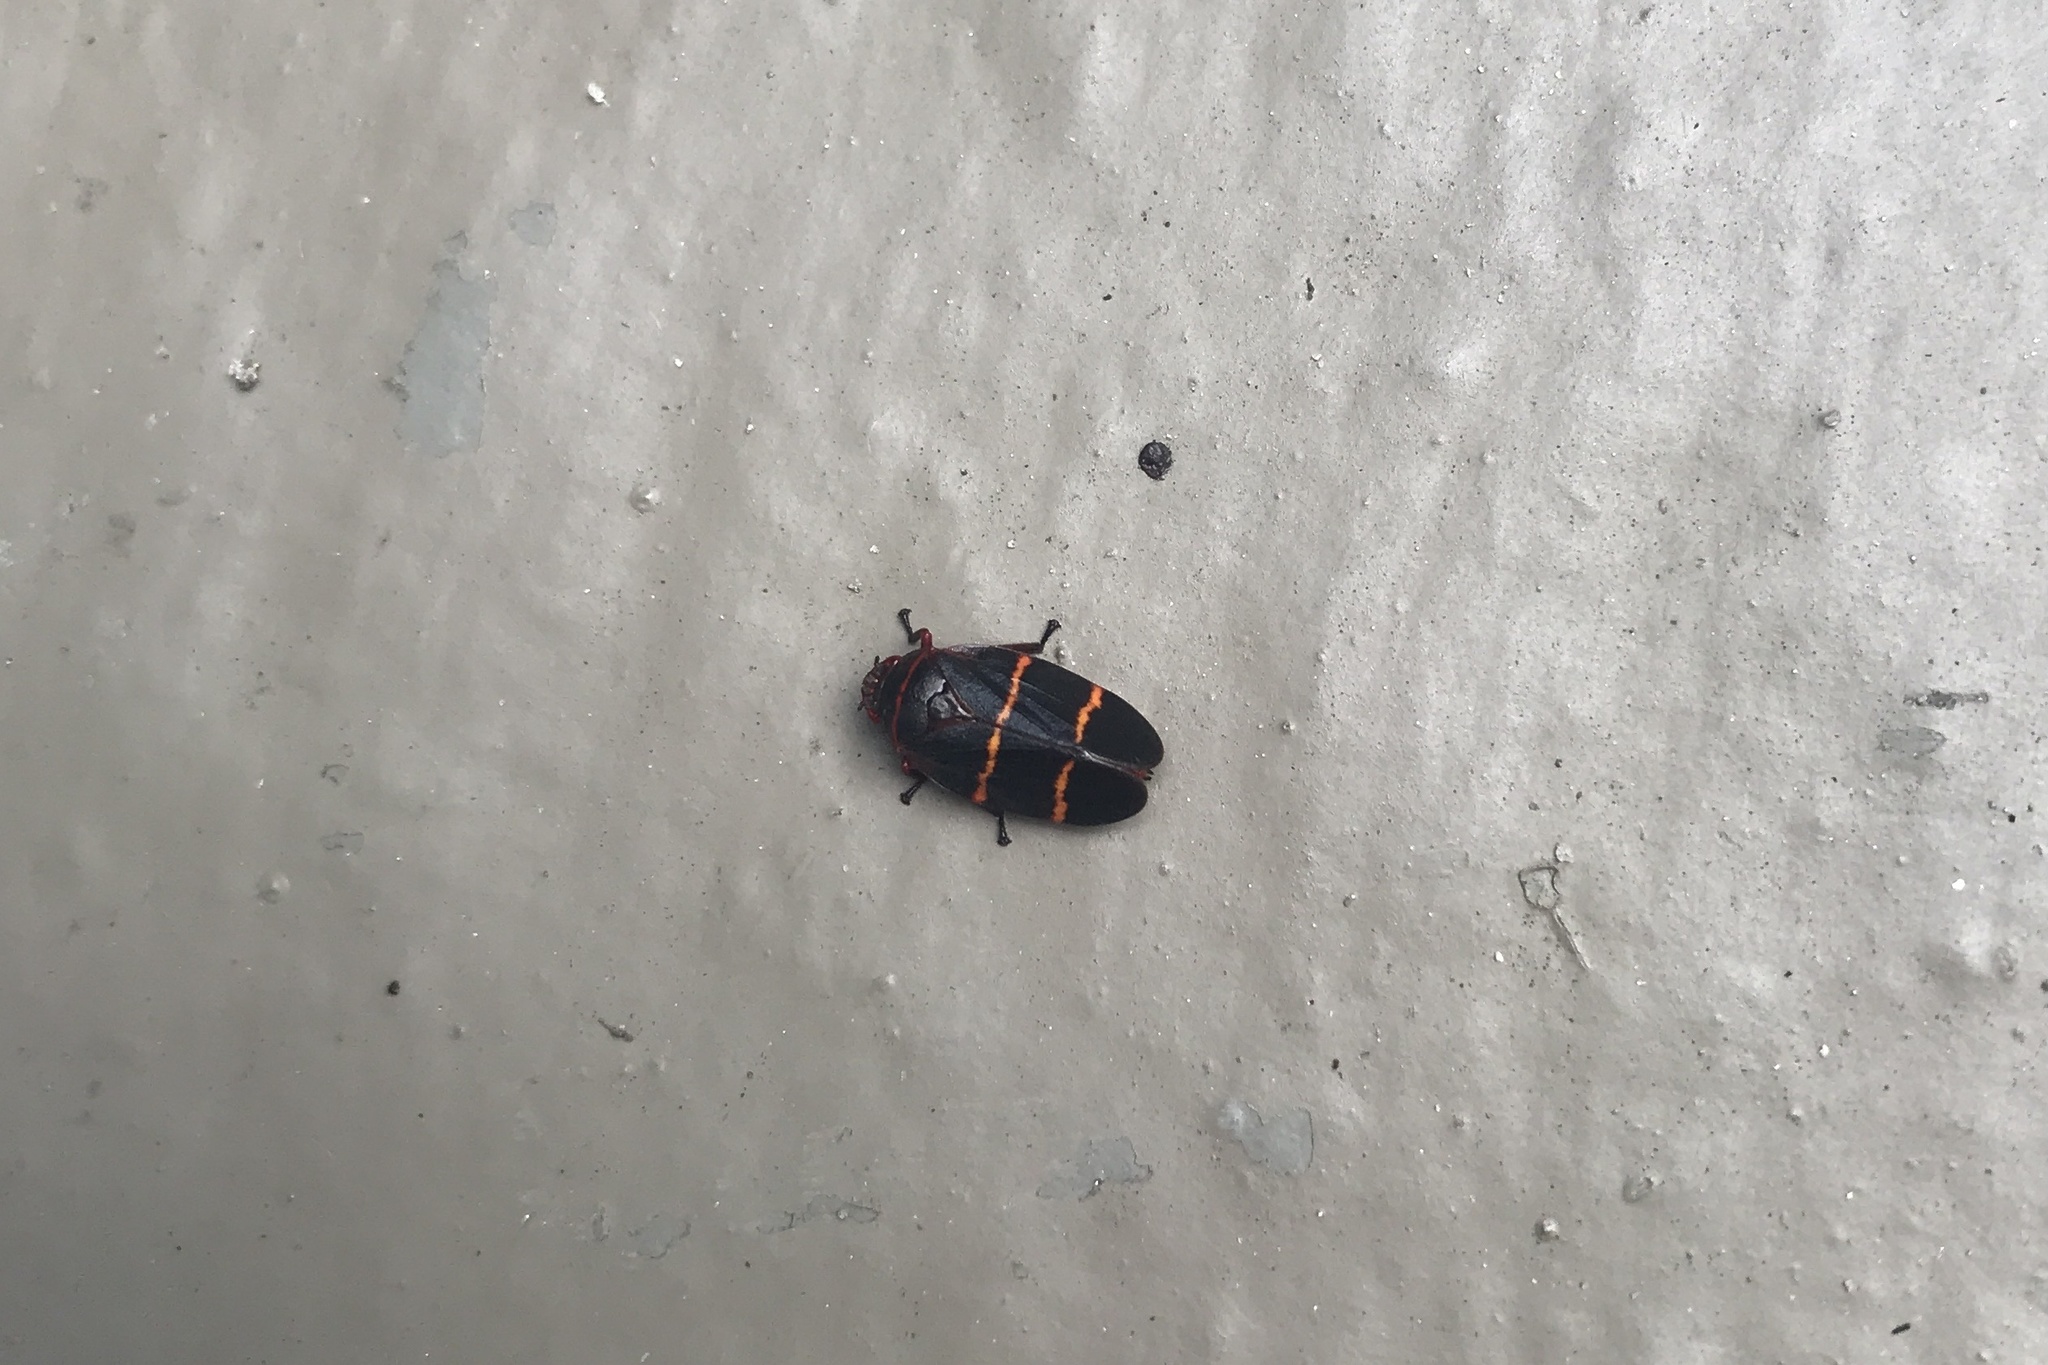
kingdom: Animalia
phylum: Arthropoda
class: Insecta
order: Hemiptera
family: Cercopidae
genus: Prosapia
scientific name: Prosapia bicincta
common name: Twolined spittlebug
